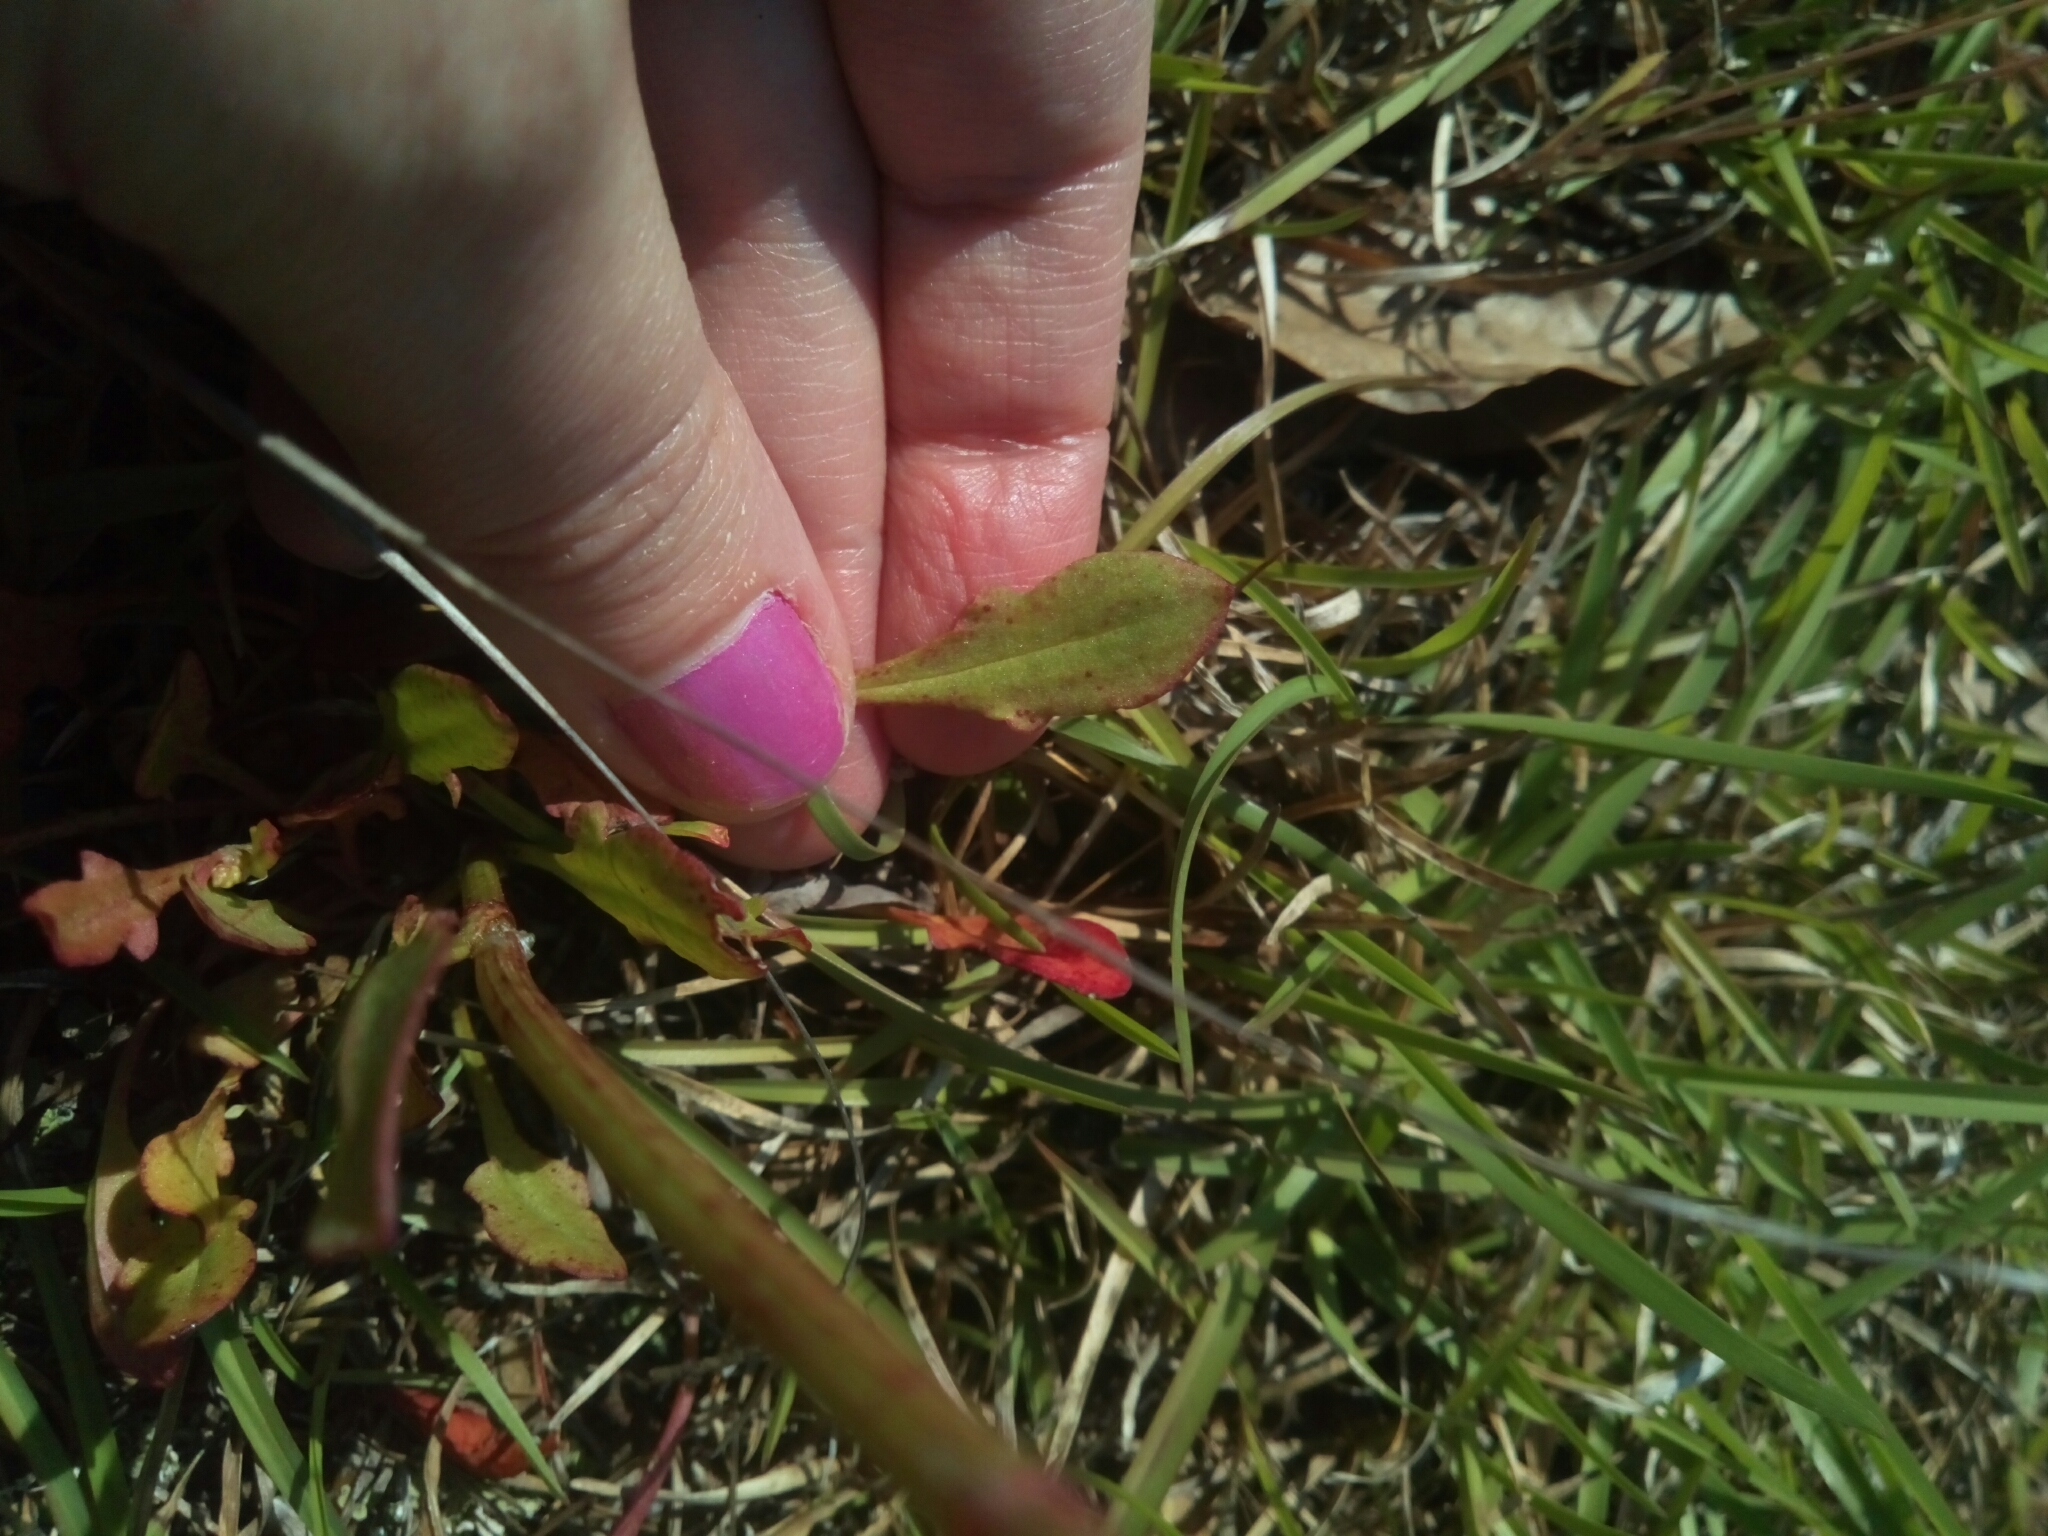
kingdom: Plantae
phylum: Tracheophyta
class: Magnoliopsida
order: Caryophyllales
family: Polygonaceae
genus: Rumex
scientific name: Rumex acetosella
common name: Common sheep sorrel
